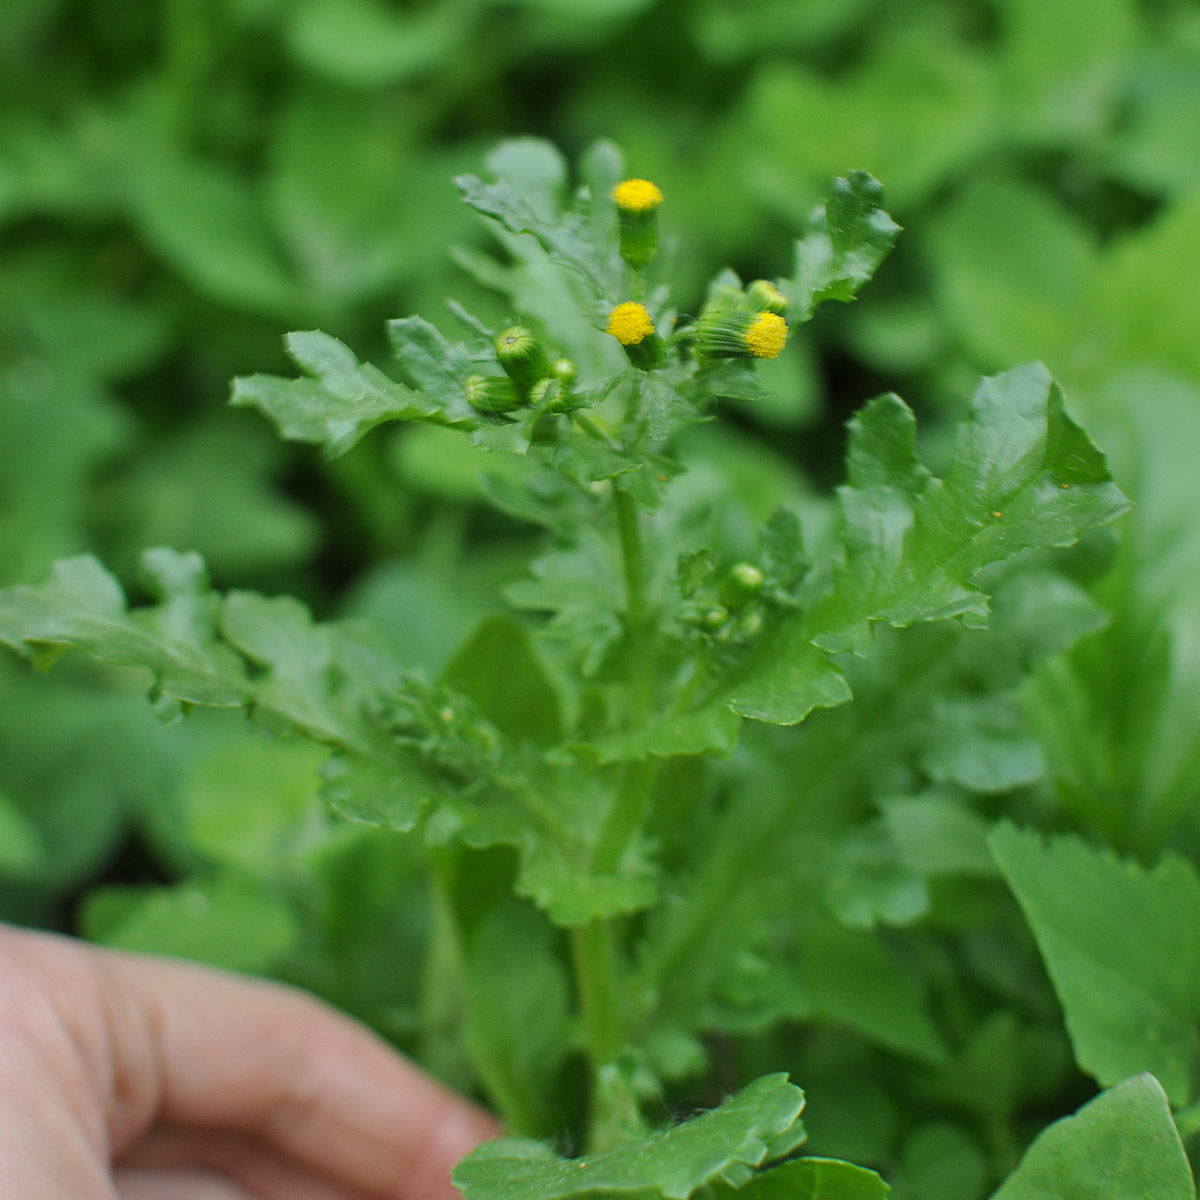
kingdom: Plantae
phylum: Tracheophyta
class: Magnoliopsida
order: Asterales
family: Asteraceae
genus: Senecio
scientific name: Senecio vulgaris
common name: Old-man-in-the-spring
